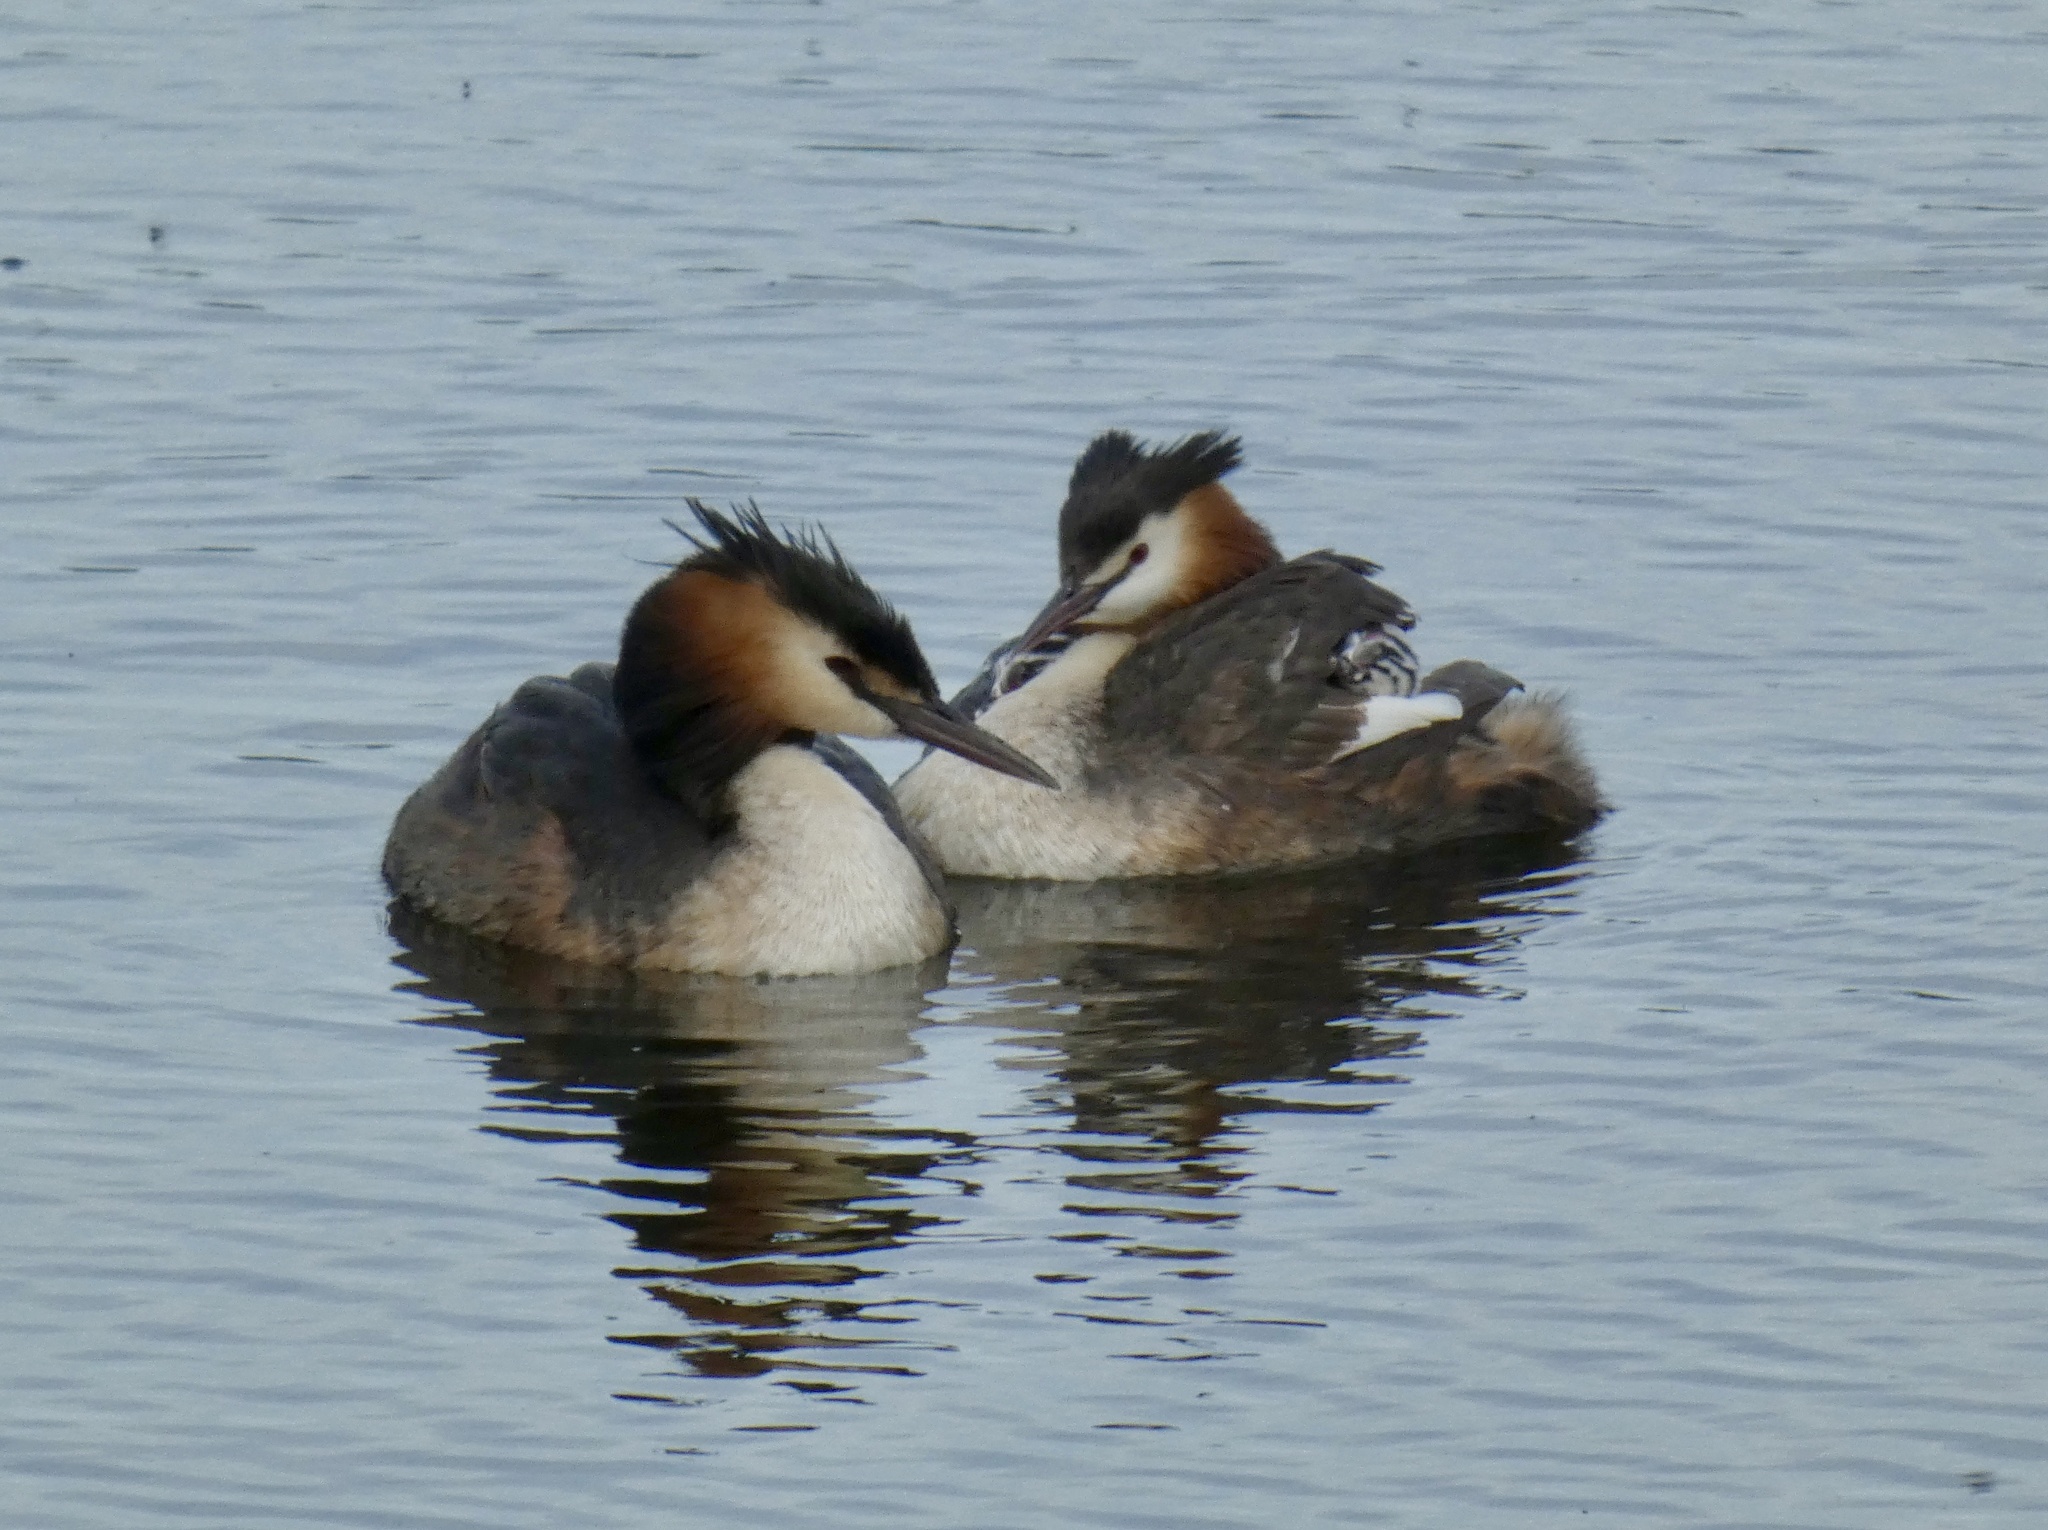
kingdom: Animalia
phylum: Chordata
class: Aves
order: Podicipediformes
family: Podicipedidae
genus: Podiceps
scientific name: Podiceps cristatus
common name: Great crested grebe
